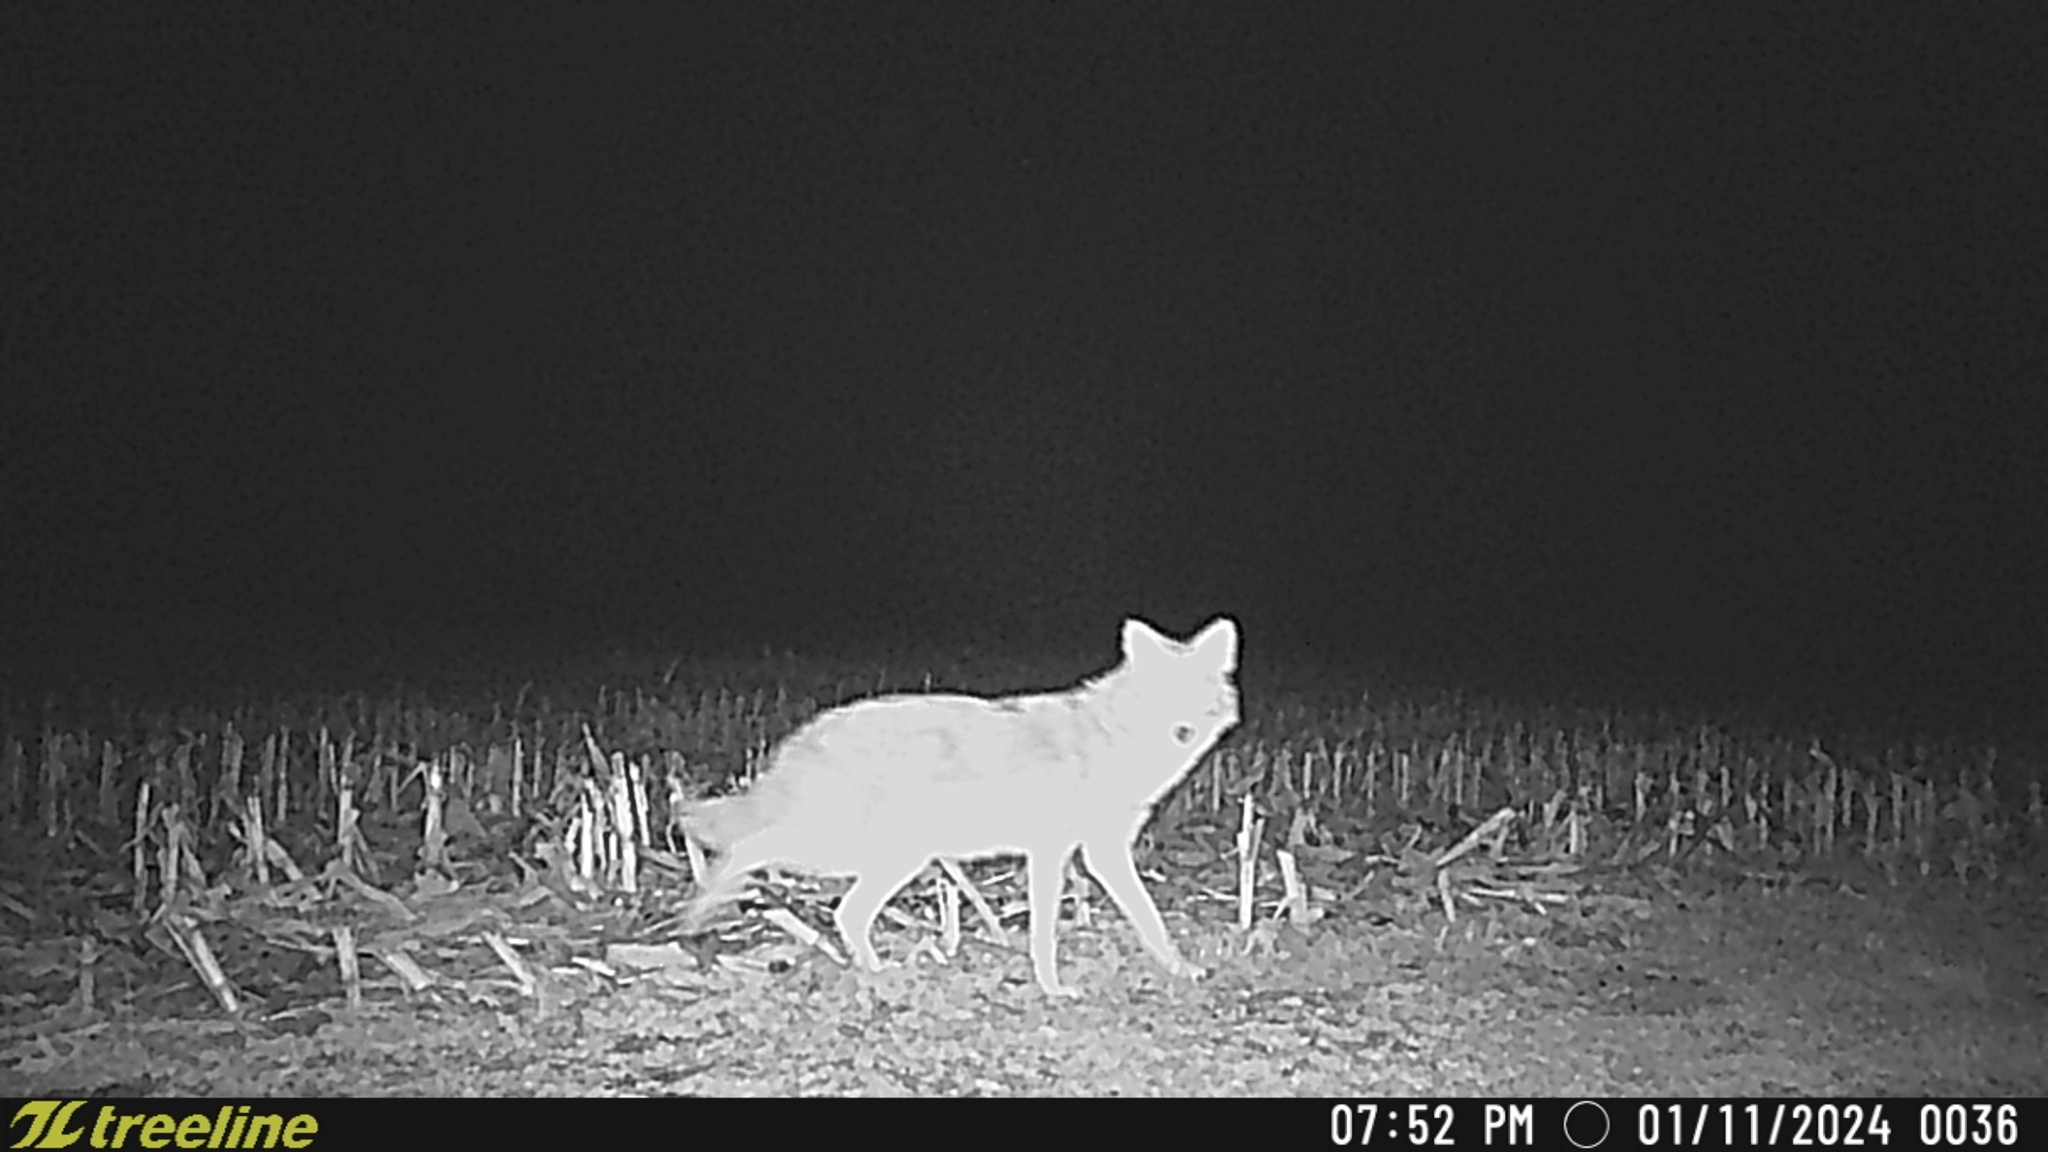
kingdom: Animalia
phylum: Chordata
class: Mammalia
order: Carnivora
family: Canidae
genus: Canis
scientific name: Canis latrans
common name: Coyote
